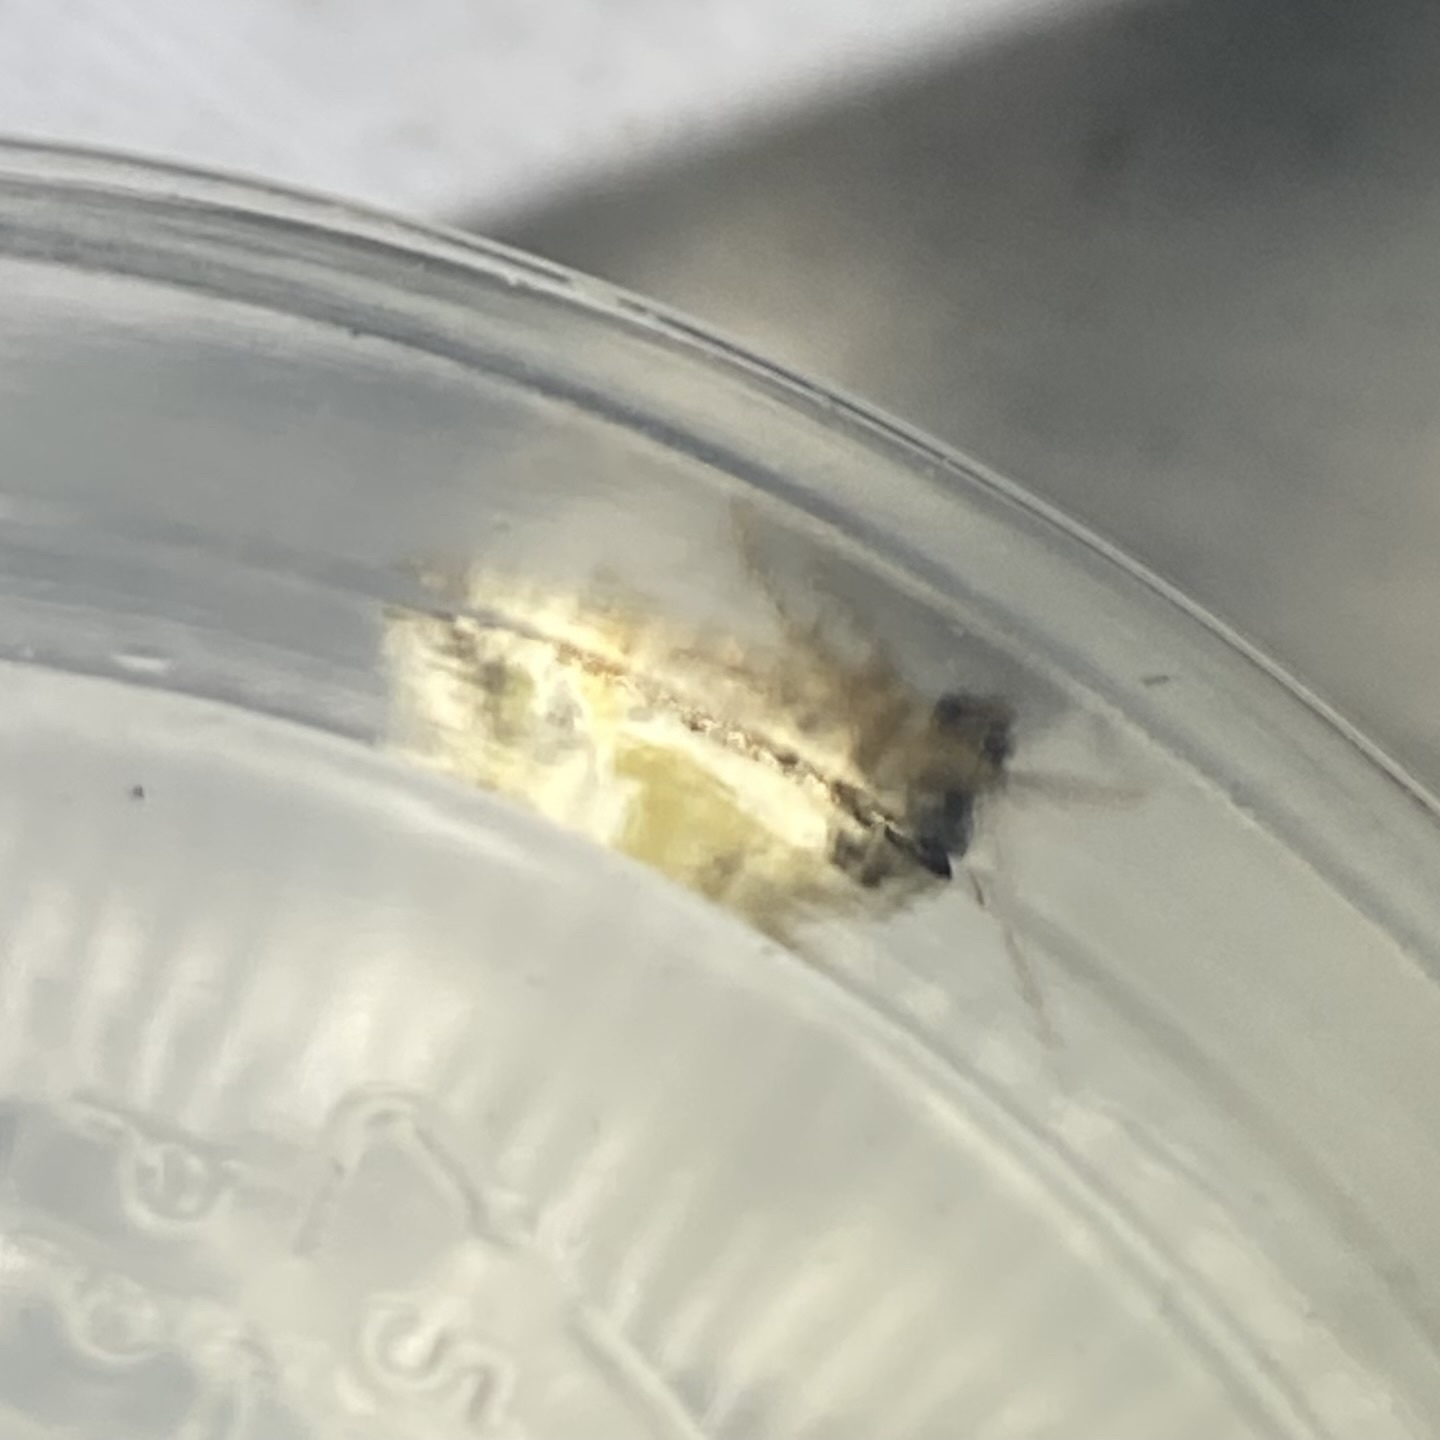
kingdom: Animalia
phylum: Arthropoda
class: Insecta
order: Lepidoptera
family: Noctuidae
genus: Maliattha
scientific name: Maliattha synochitis
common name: Black-dotted glyph
